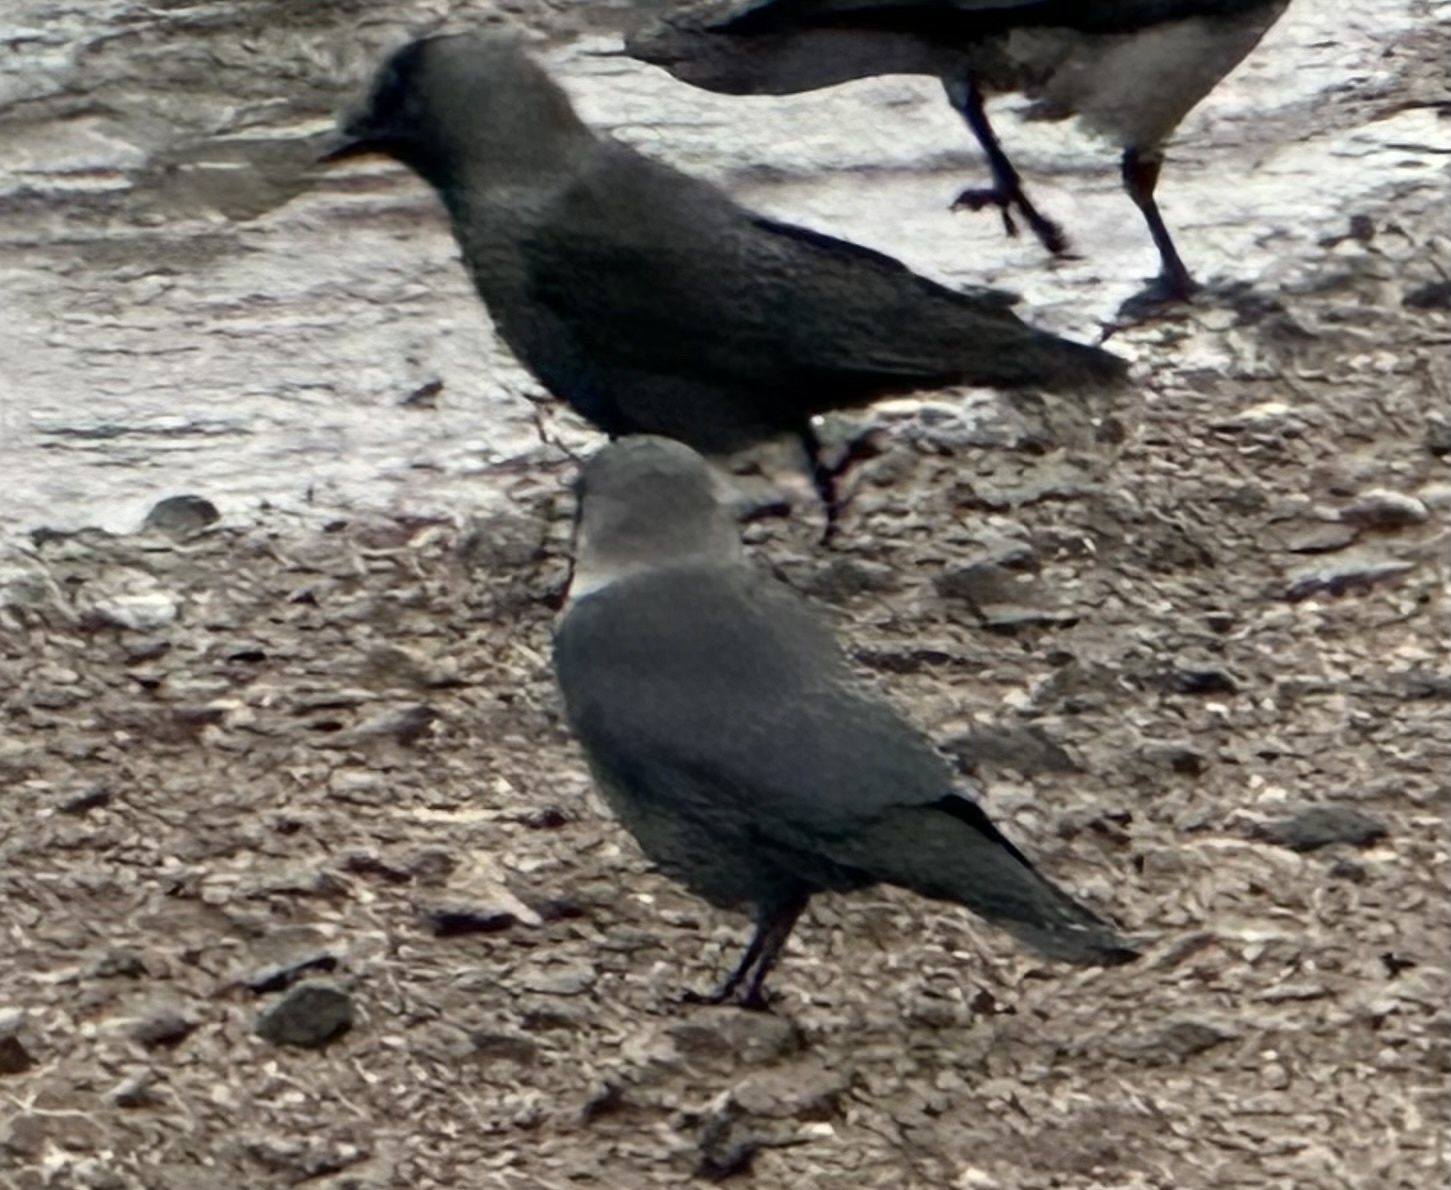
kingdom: Animalia
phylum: Chordata
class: Aves
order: Passeriformes
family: Corvidae
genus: Coloeus
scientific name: Coloeus monedula
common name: Western jackdaw
